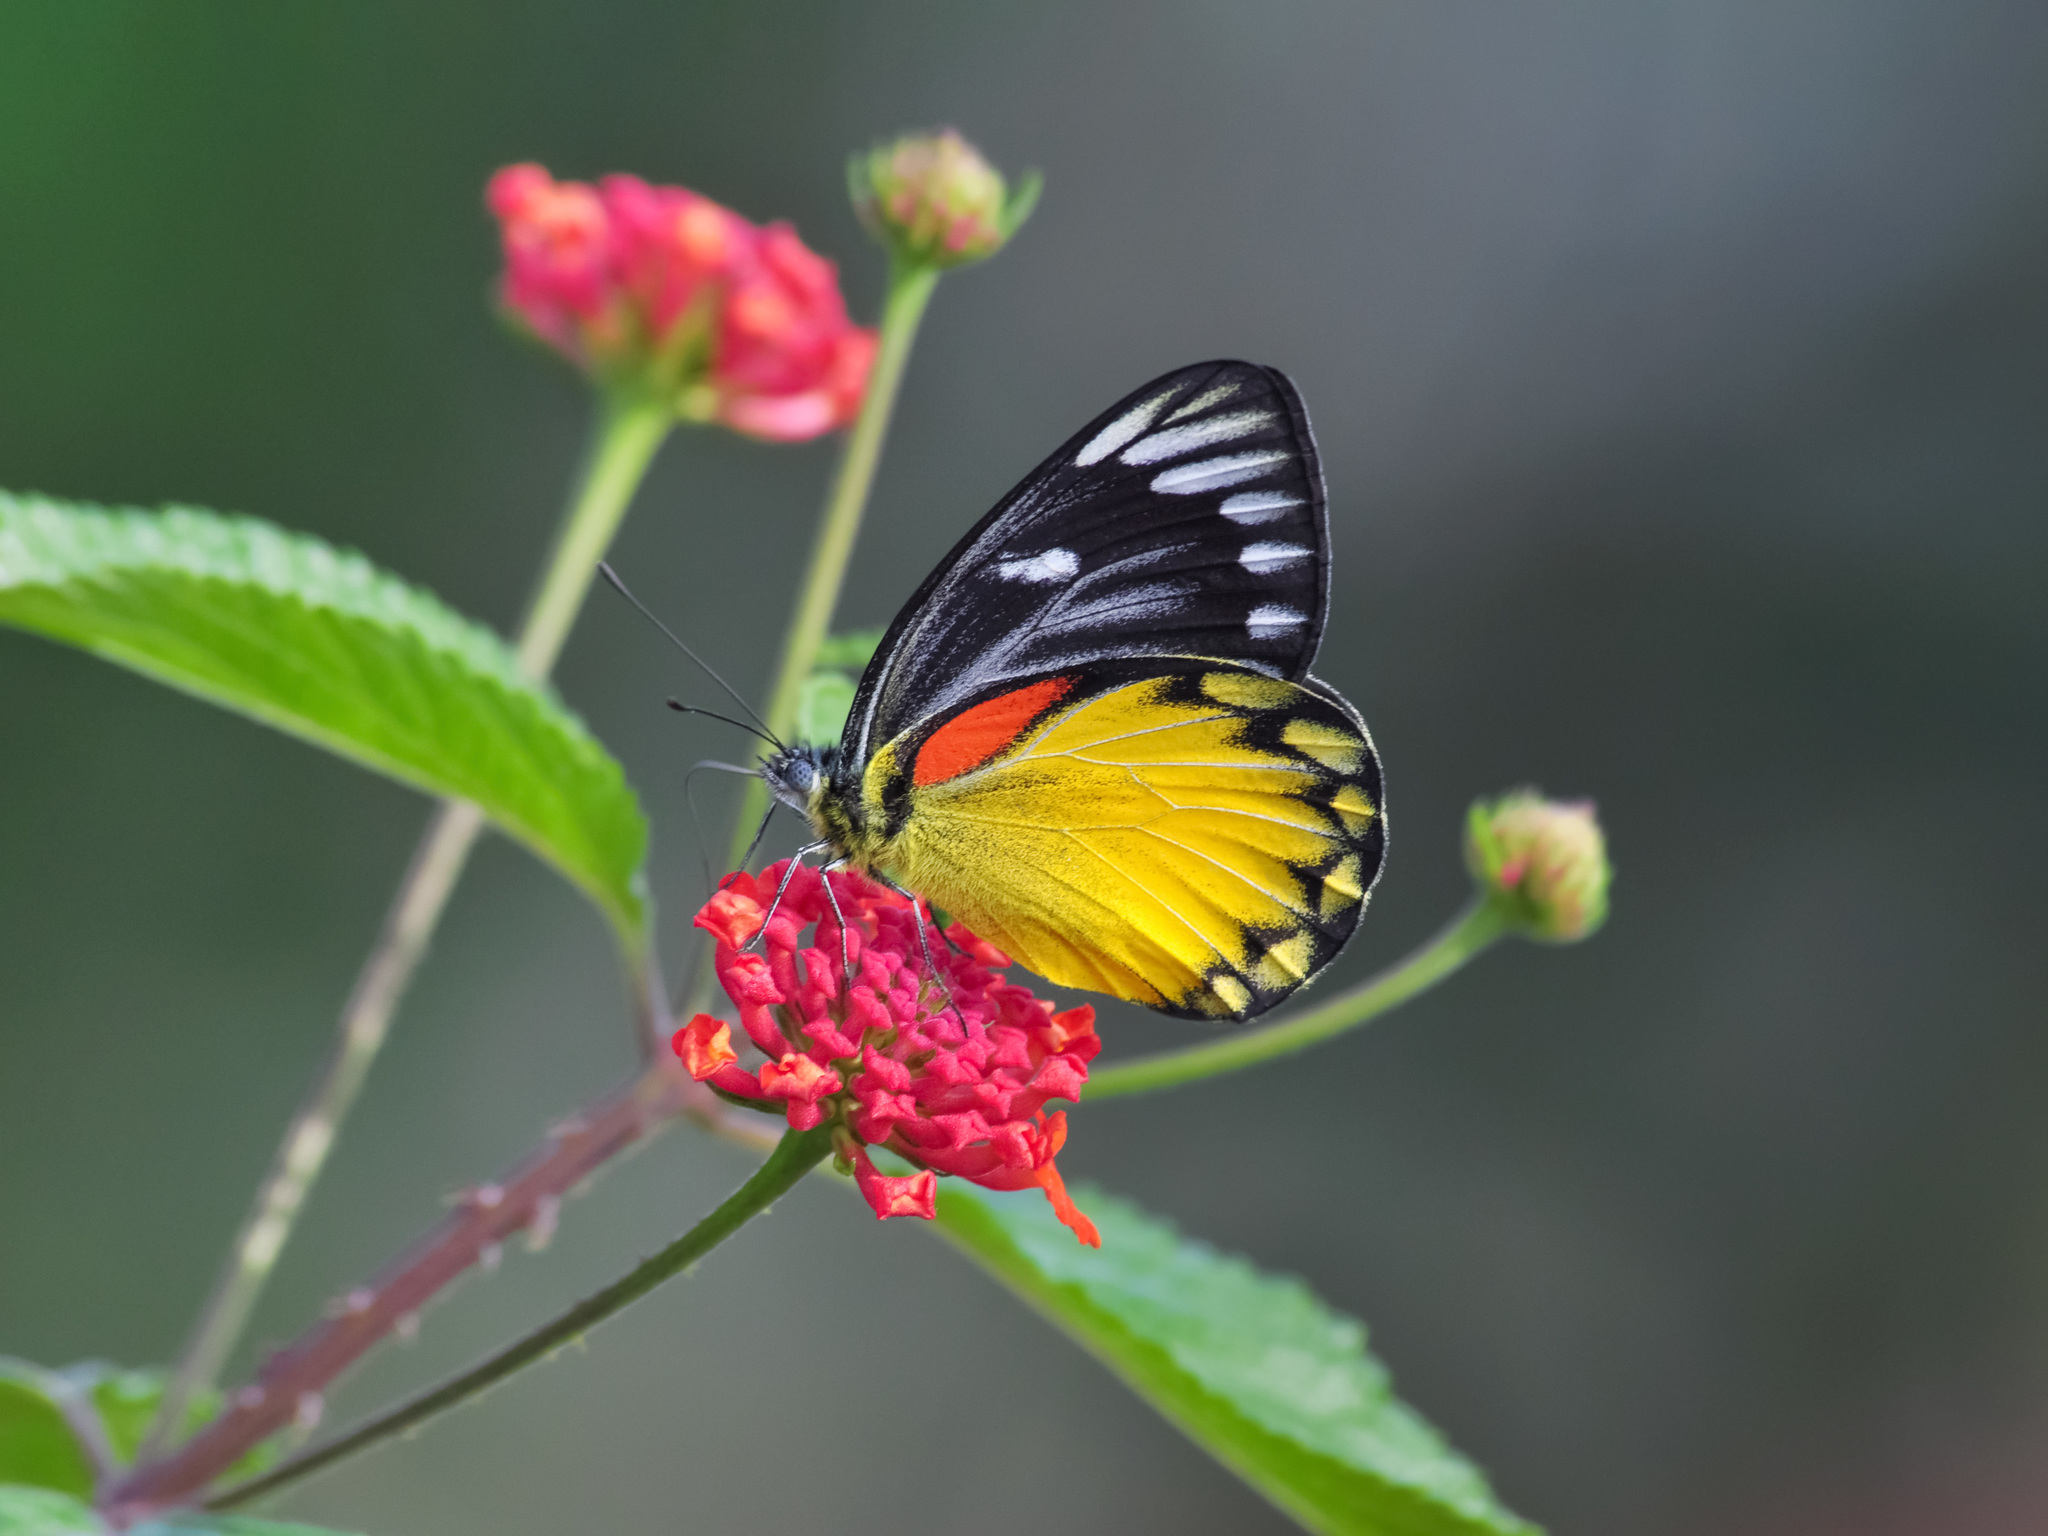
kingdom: Animalia
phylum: Arthropoda
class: Insecta
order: Lepidoptera
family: Pieridae
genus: Delias
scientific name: Delias descombesi
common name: Red-spot jezebel
